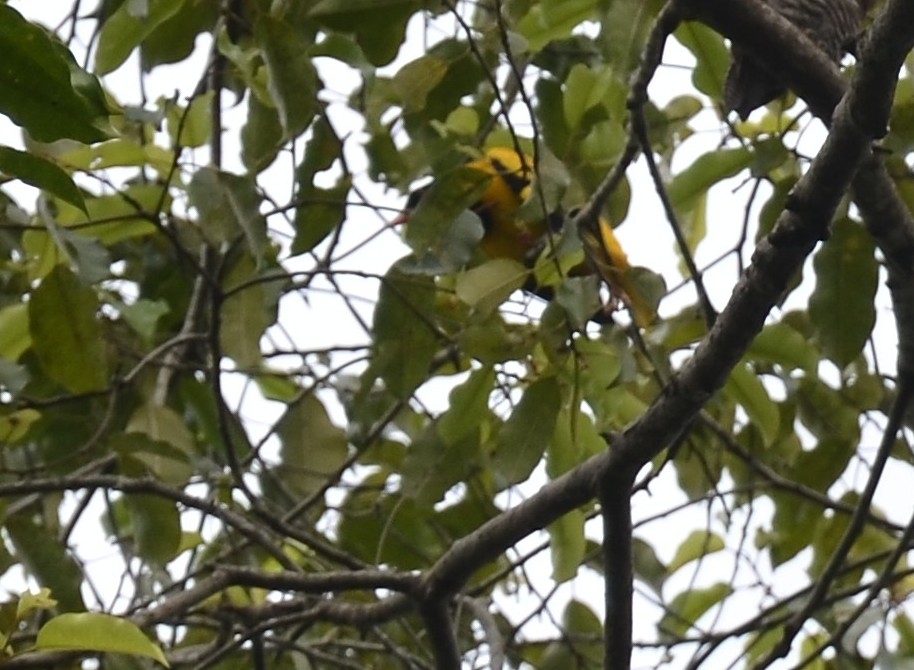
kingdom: Animalia
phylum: Chordata
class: Aves
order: Passeriformes
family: Oriolidae
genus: Oriolus
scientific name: Oriolus xanthornus
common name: Black-hooded oriole
